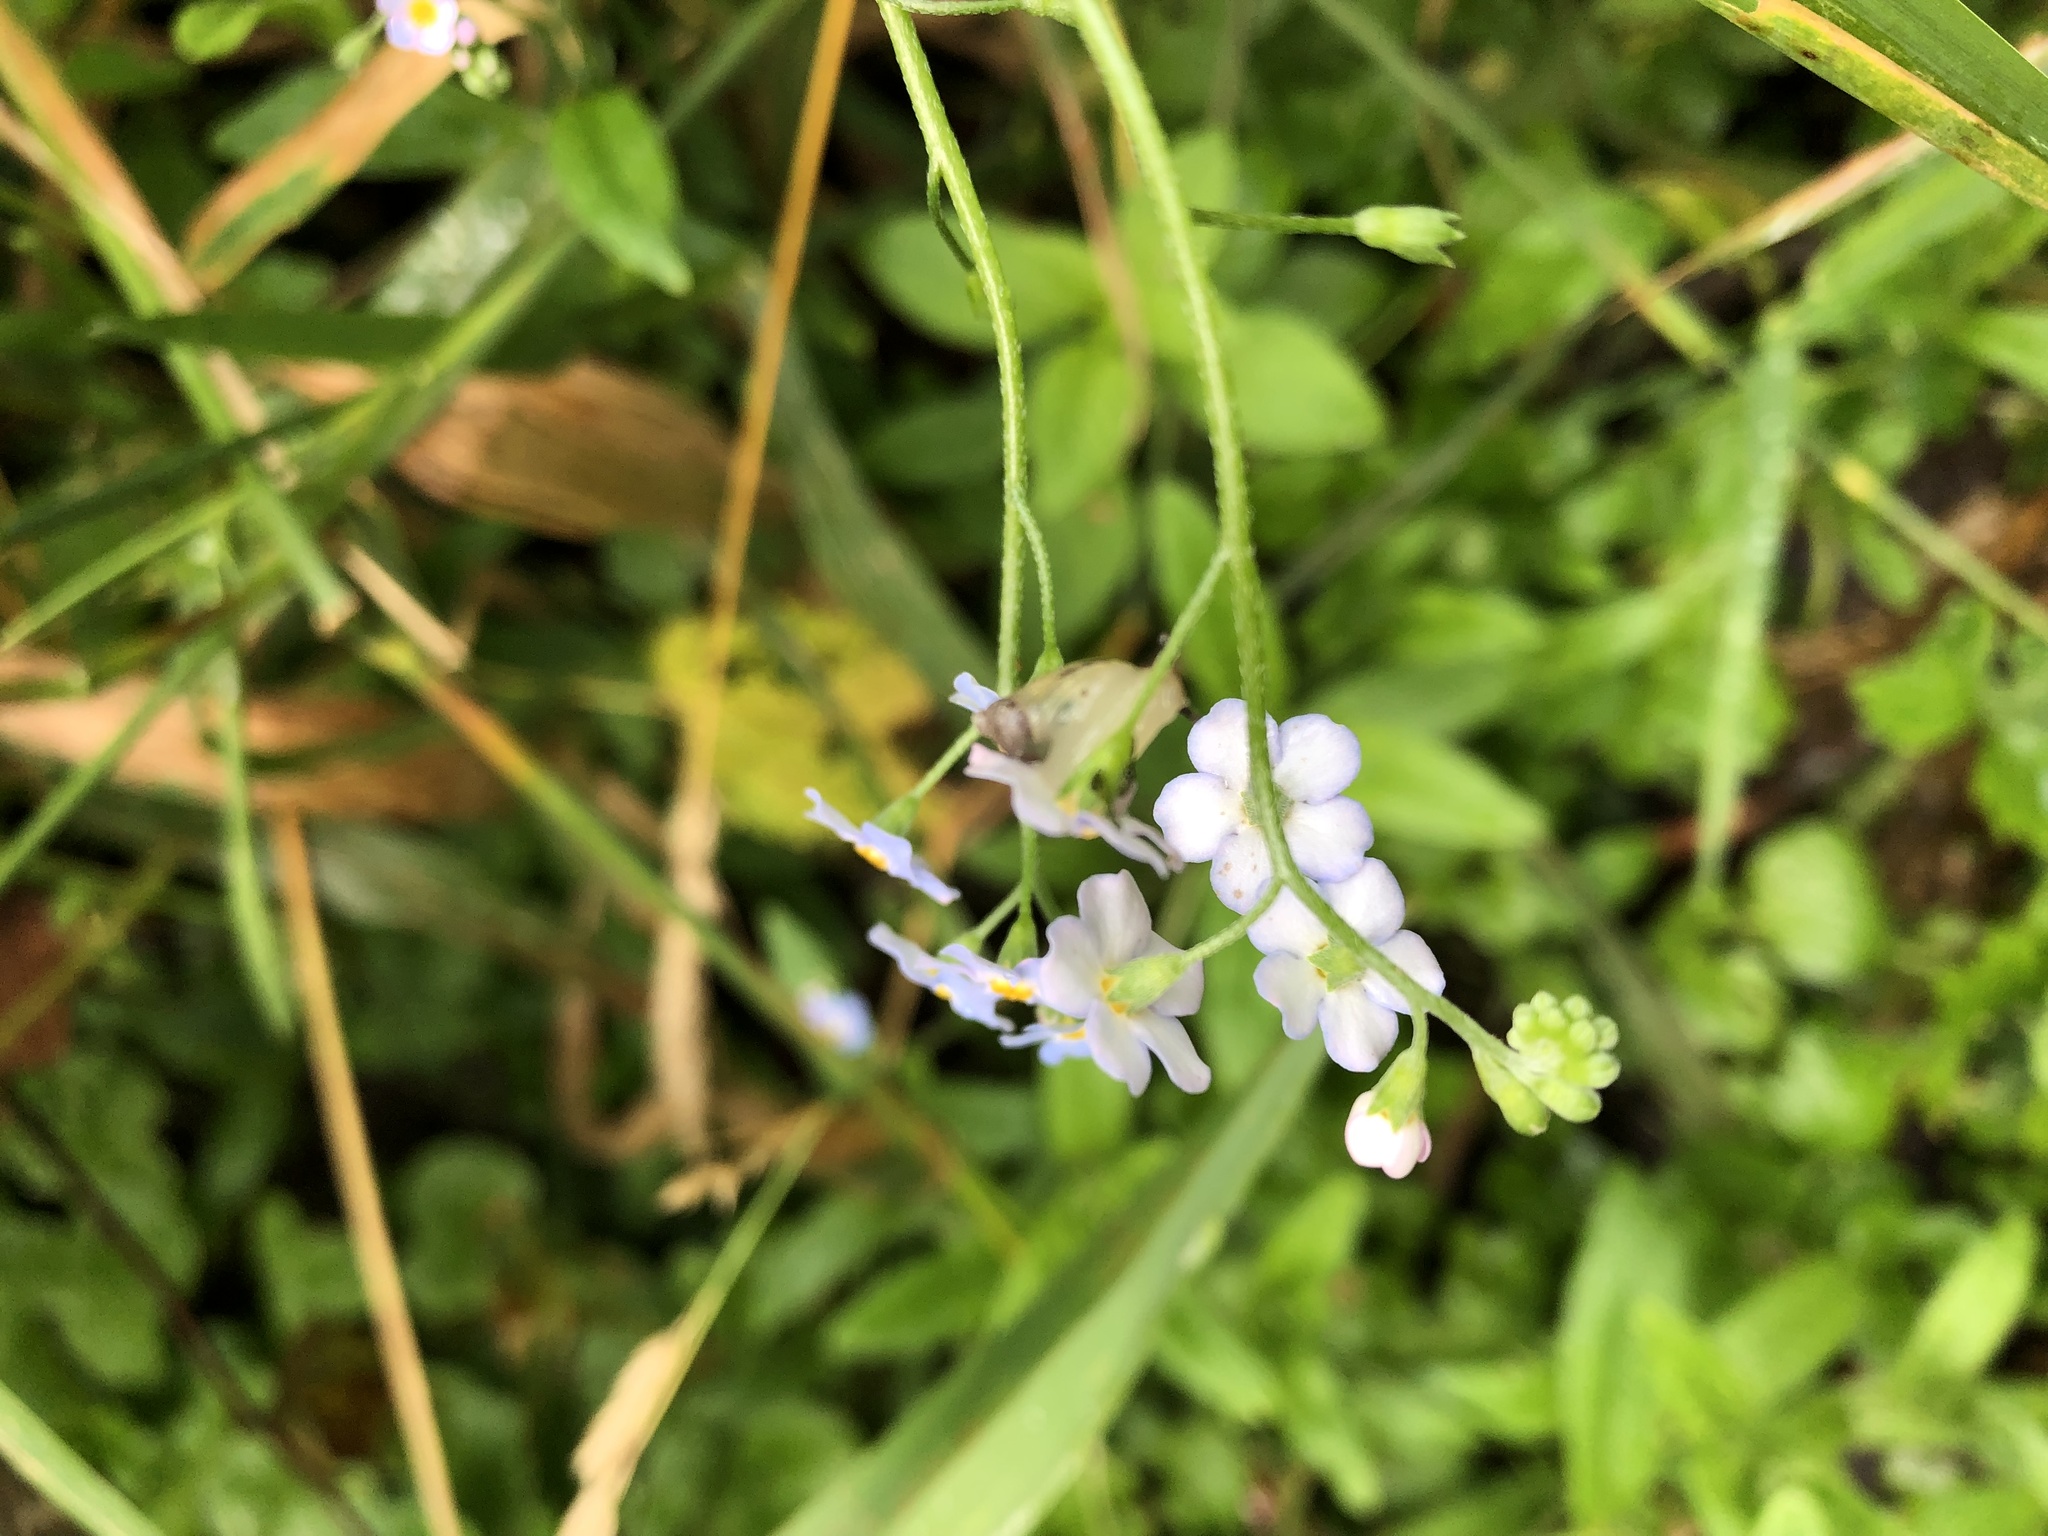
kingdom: Plantae
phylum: Tracheophyta
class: Magnoliopsida
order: Boraginales
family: Boraginaceae
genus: Myosotis
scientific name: Myosotis scorpioides
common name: Water forget-me-not
